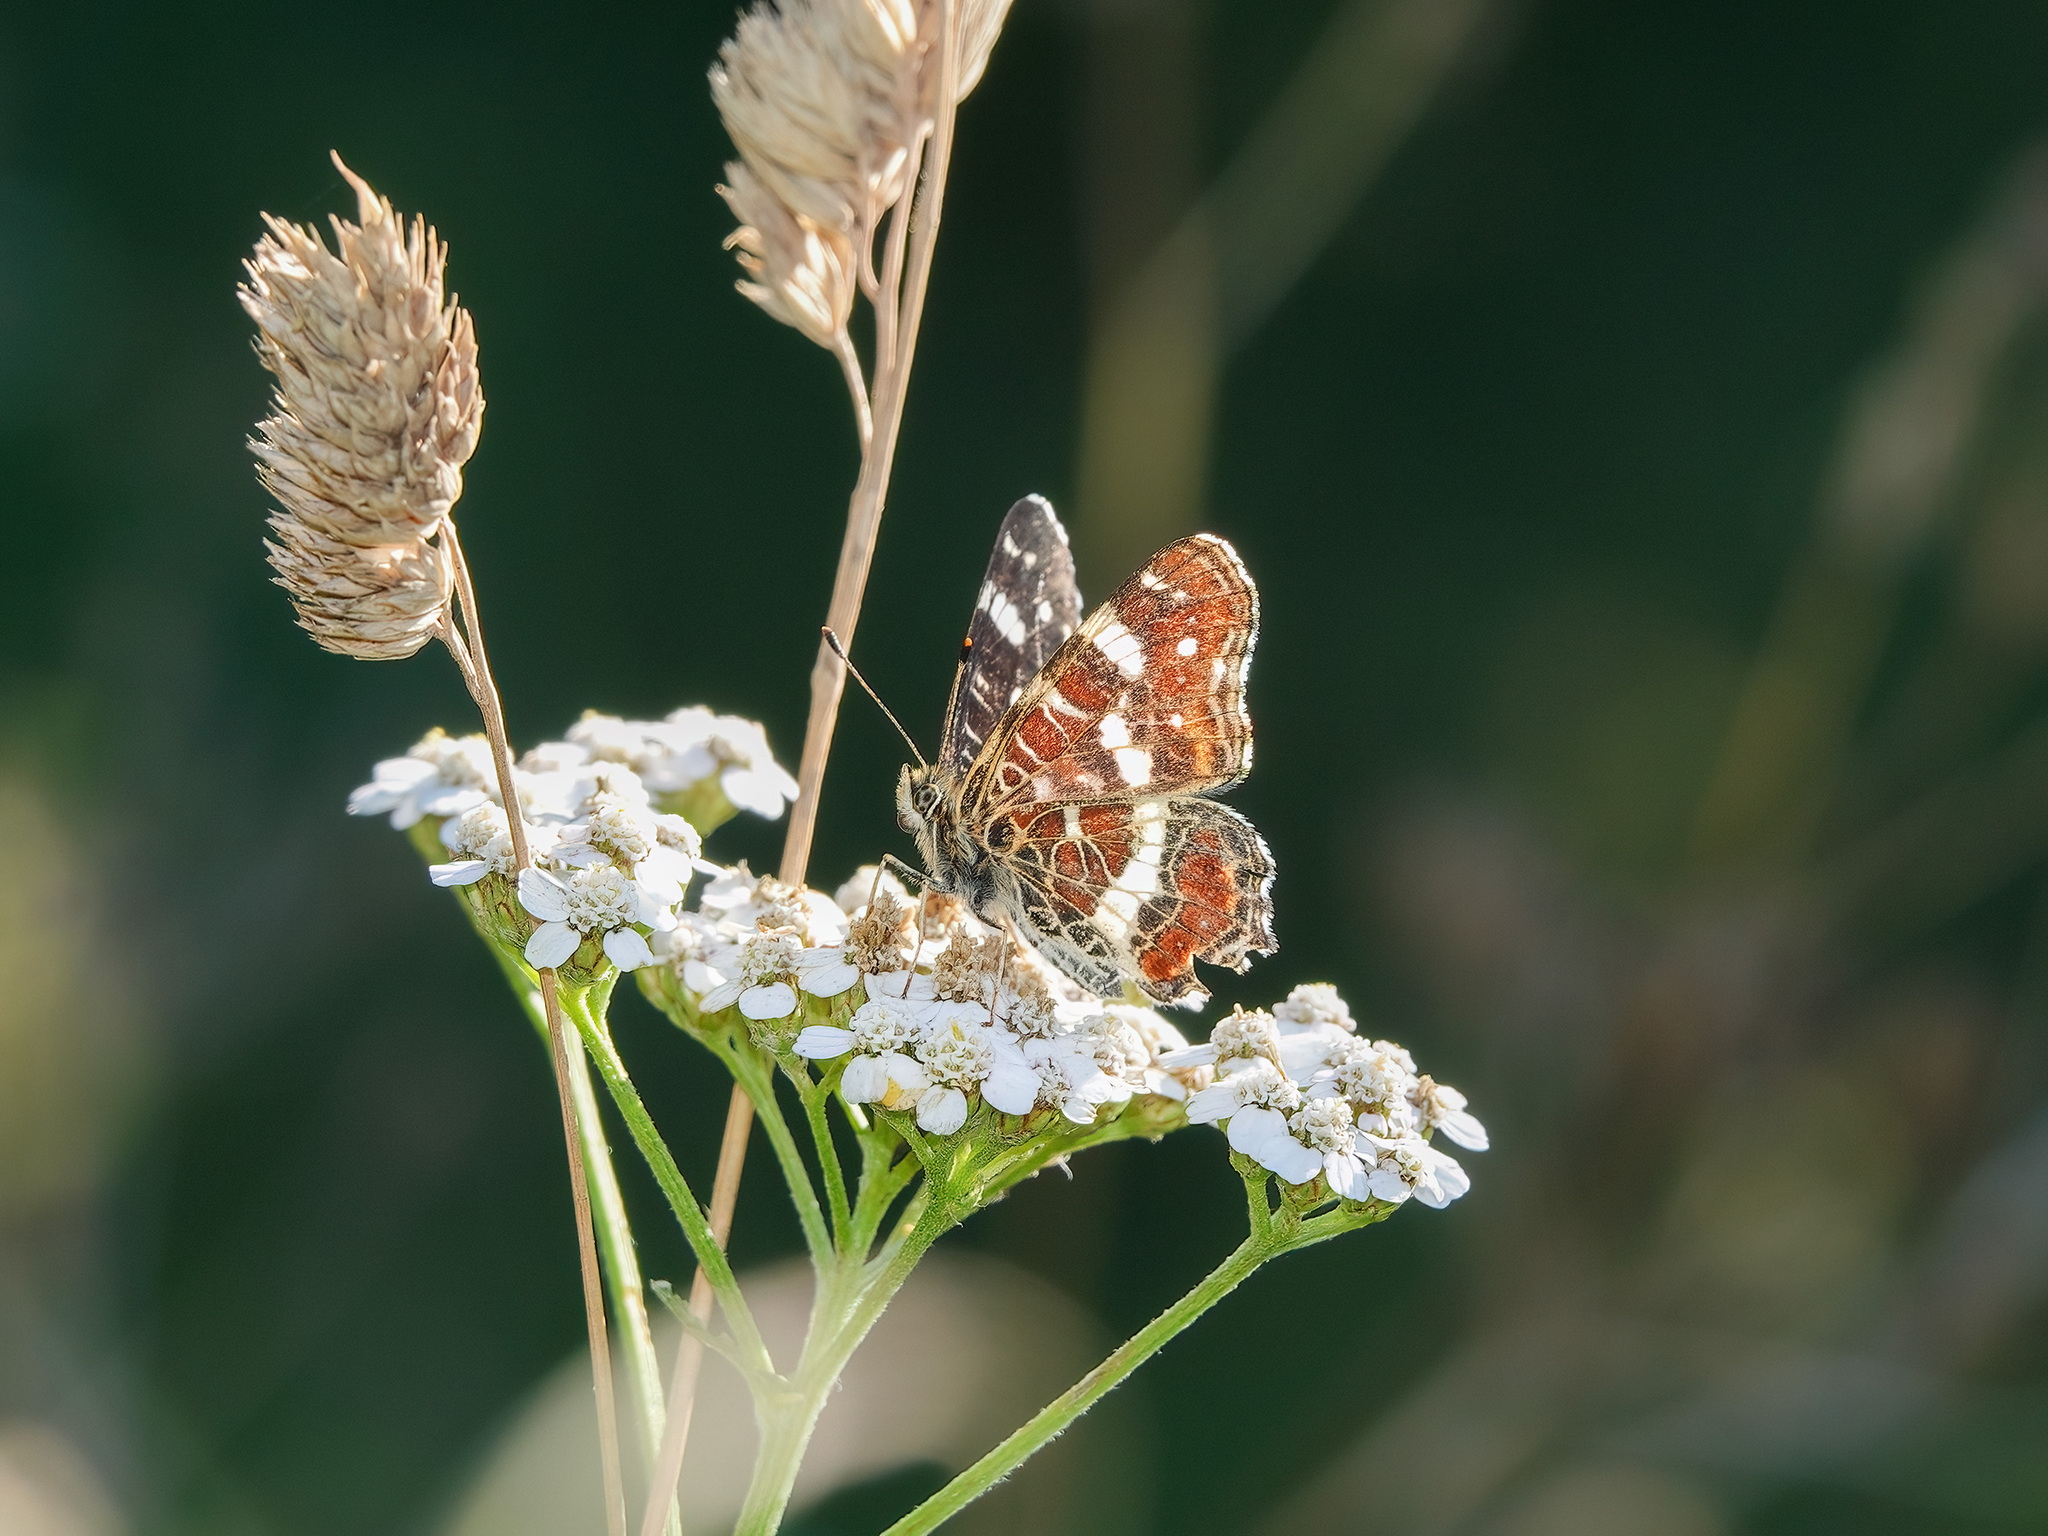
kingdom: Animalia
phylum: Arthropoda
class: Insecta
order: Lepidoptera
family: Nymphalidae
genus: Araschnia
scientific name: Araschnia levana
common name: Map butterfly
